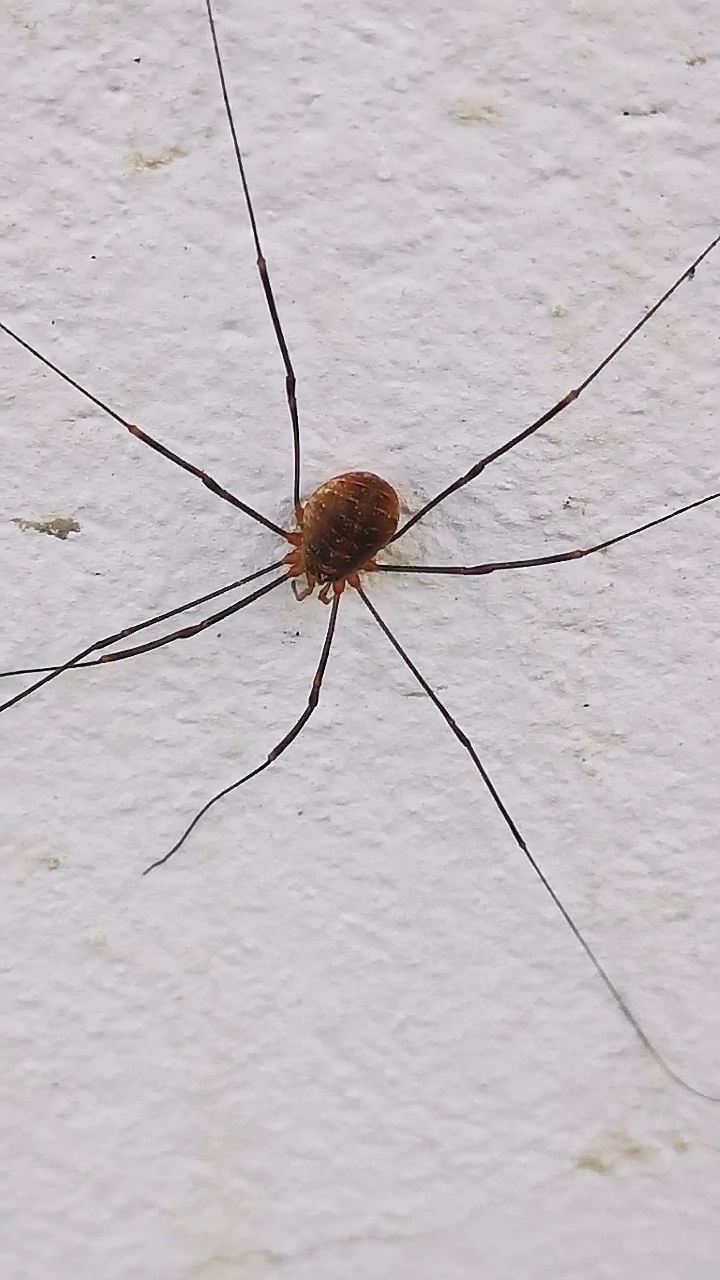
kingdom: Animalia
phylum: Arthropoda
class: Arachnida
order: Opiliones
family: Phalangiidae
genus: Opilio
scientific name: Opilio canestrinii
